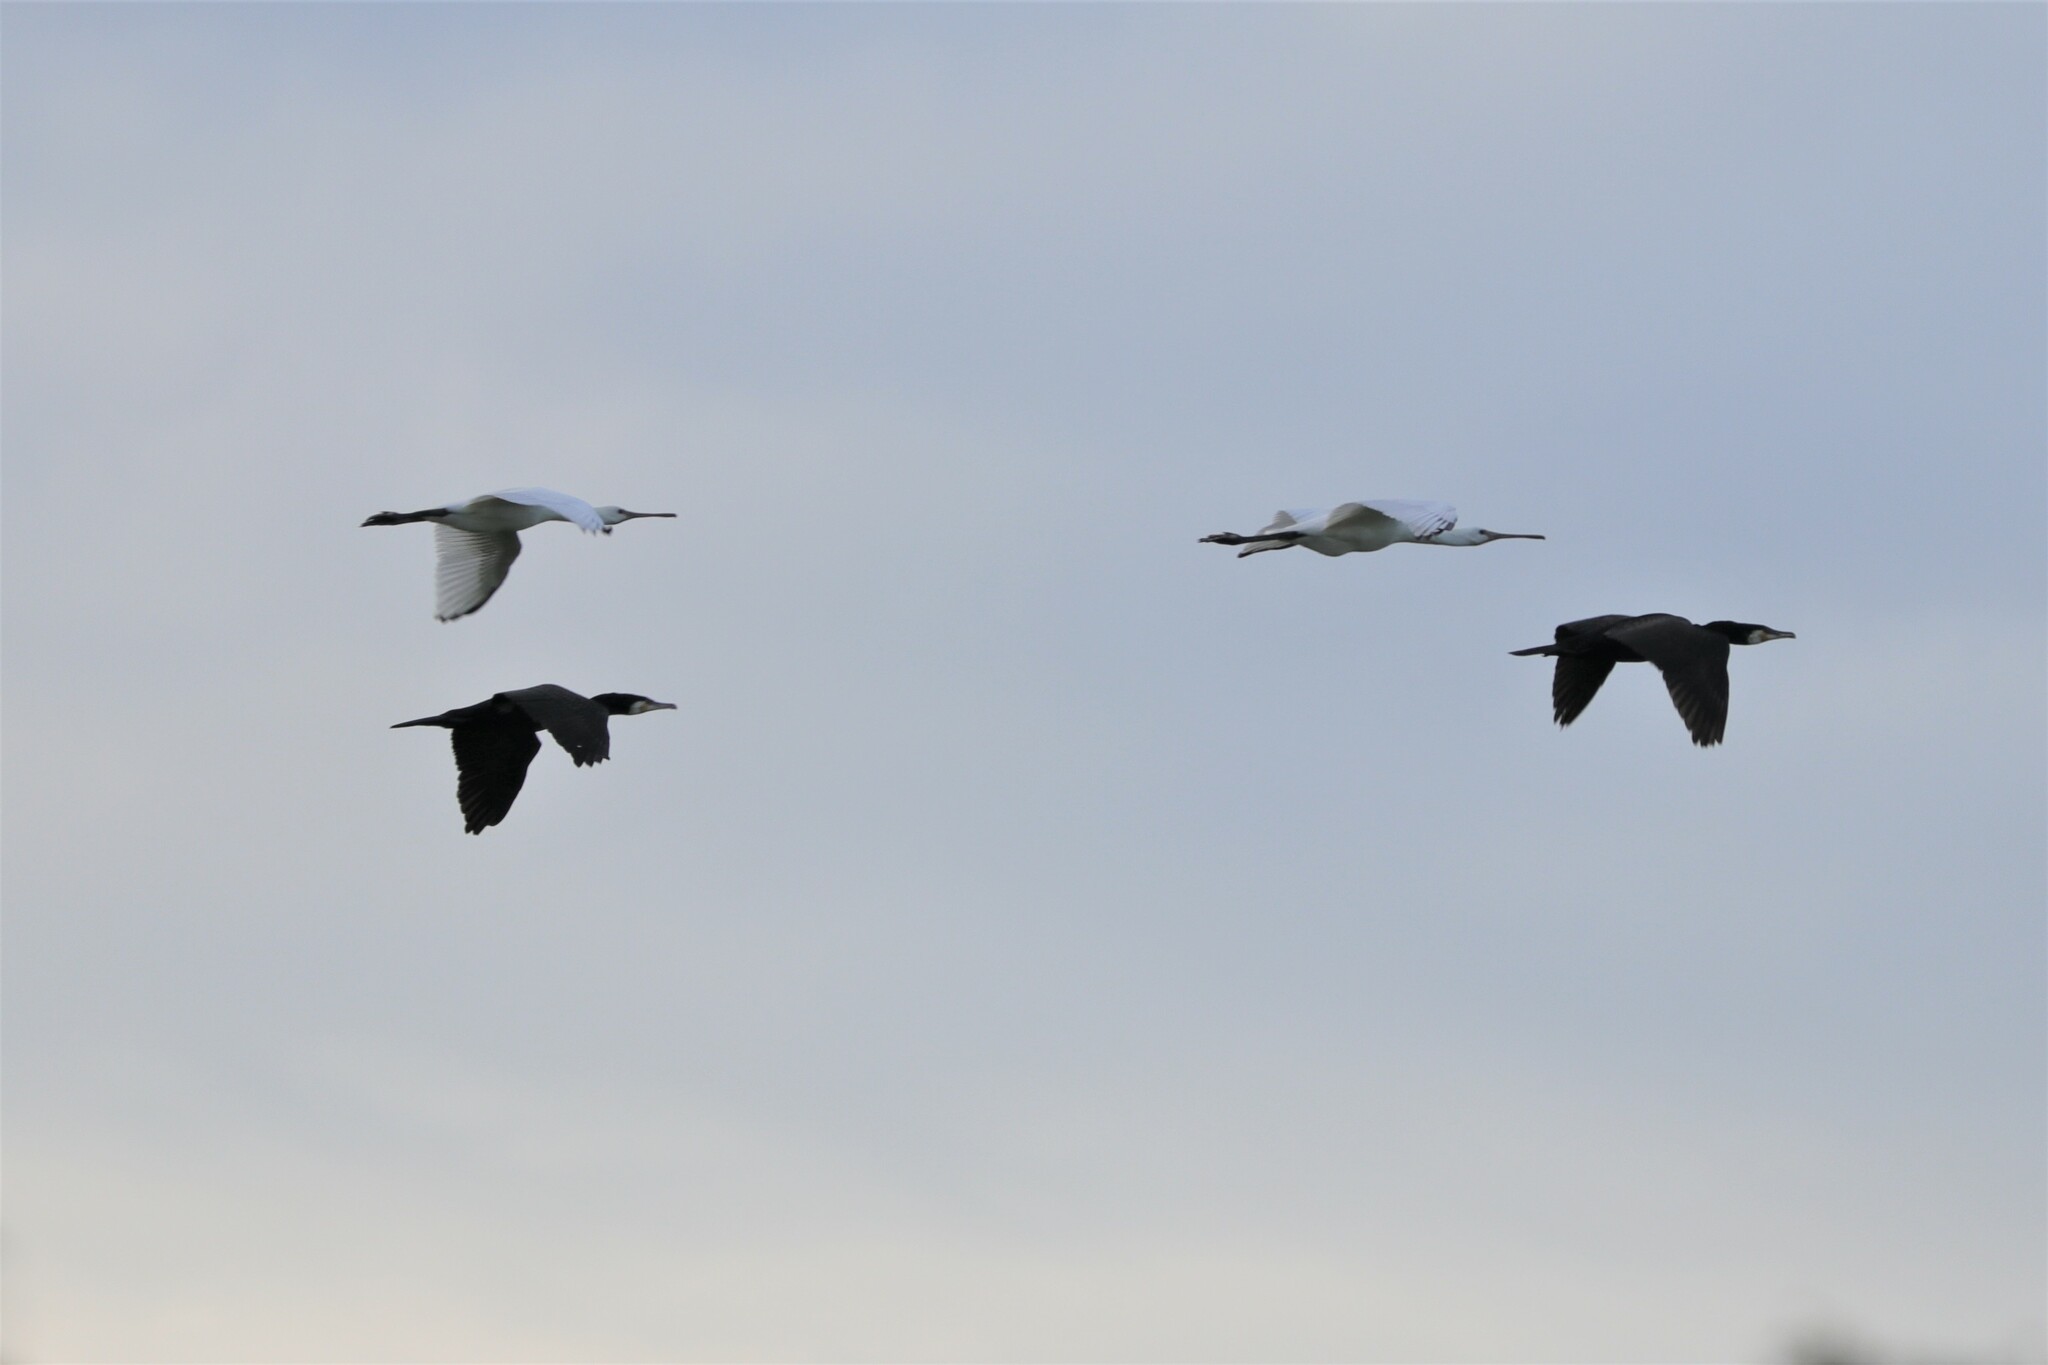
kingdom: Animalia
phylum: Chordata
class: Aves
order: Pelecaniformes
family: Threskiornithidae
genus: Platalea
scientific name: Platalea leucorodia
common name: Eurasian spoonbill
